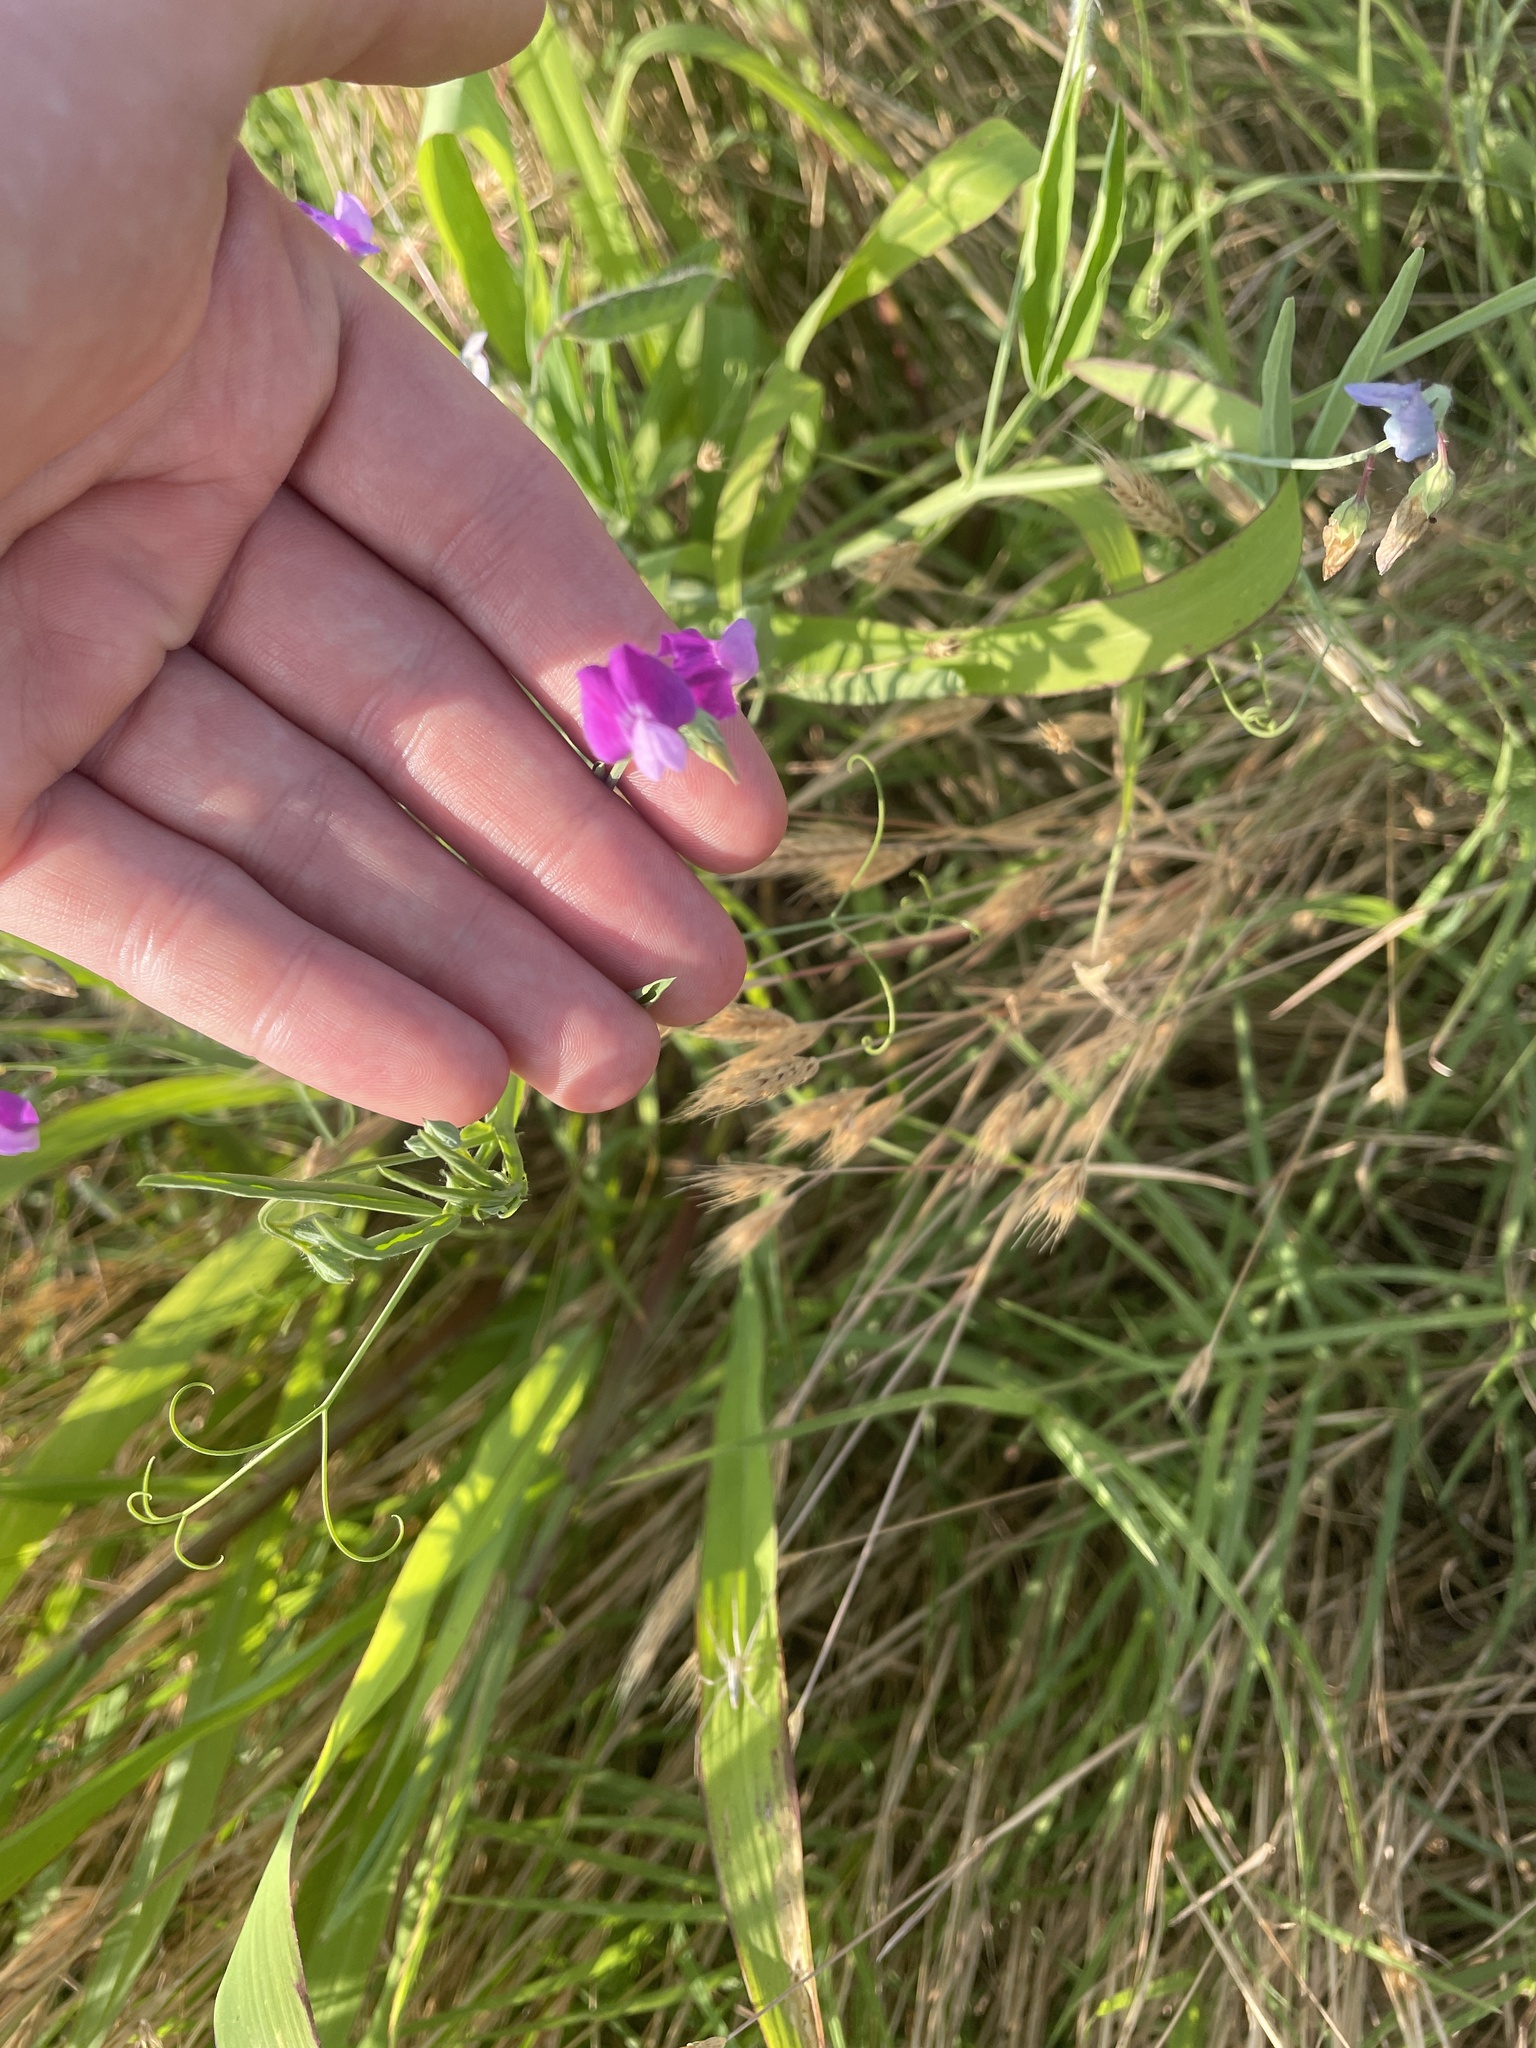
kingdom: Plantae
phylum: Tracheophyta
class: Magnoliopsida
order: Fabales
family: Fabaceae
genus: Lathyrus
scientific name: Lathyrus hirsutus
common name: Hairy vetchling
